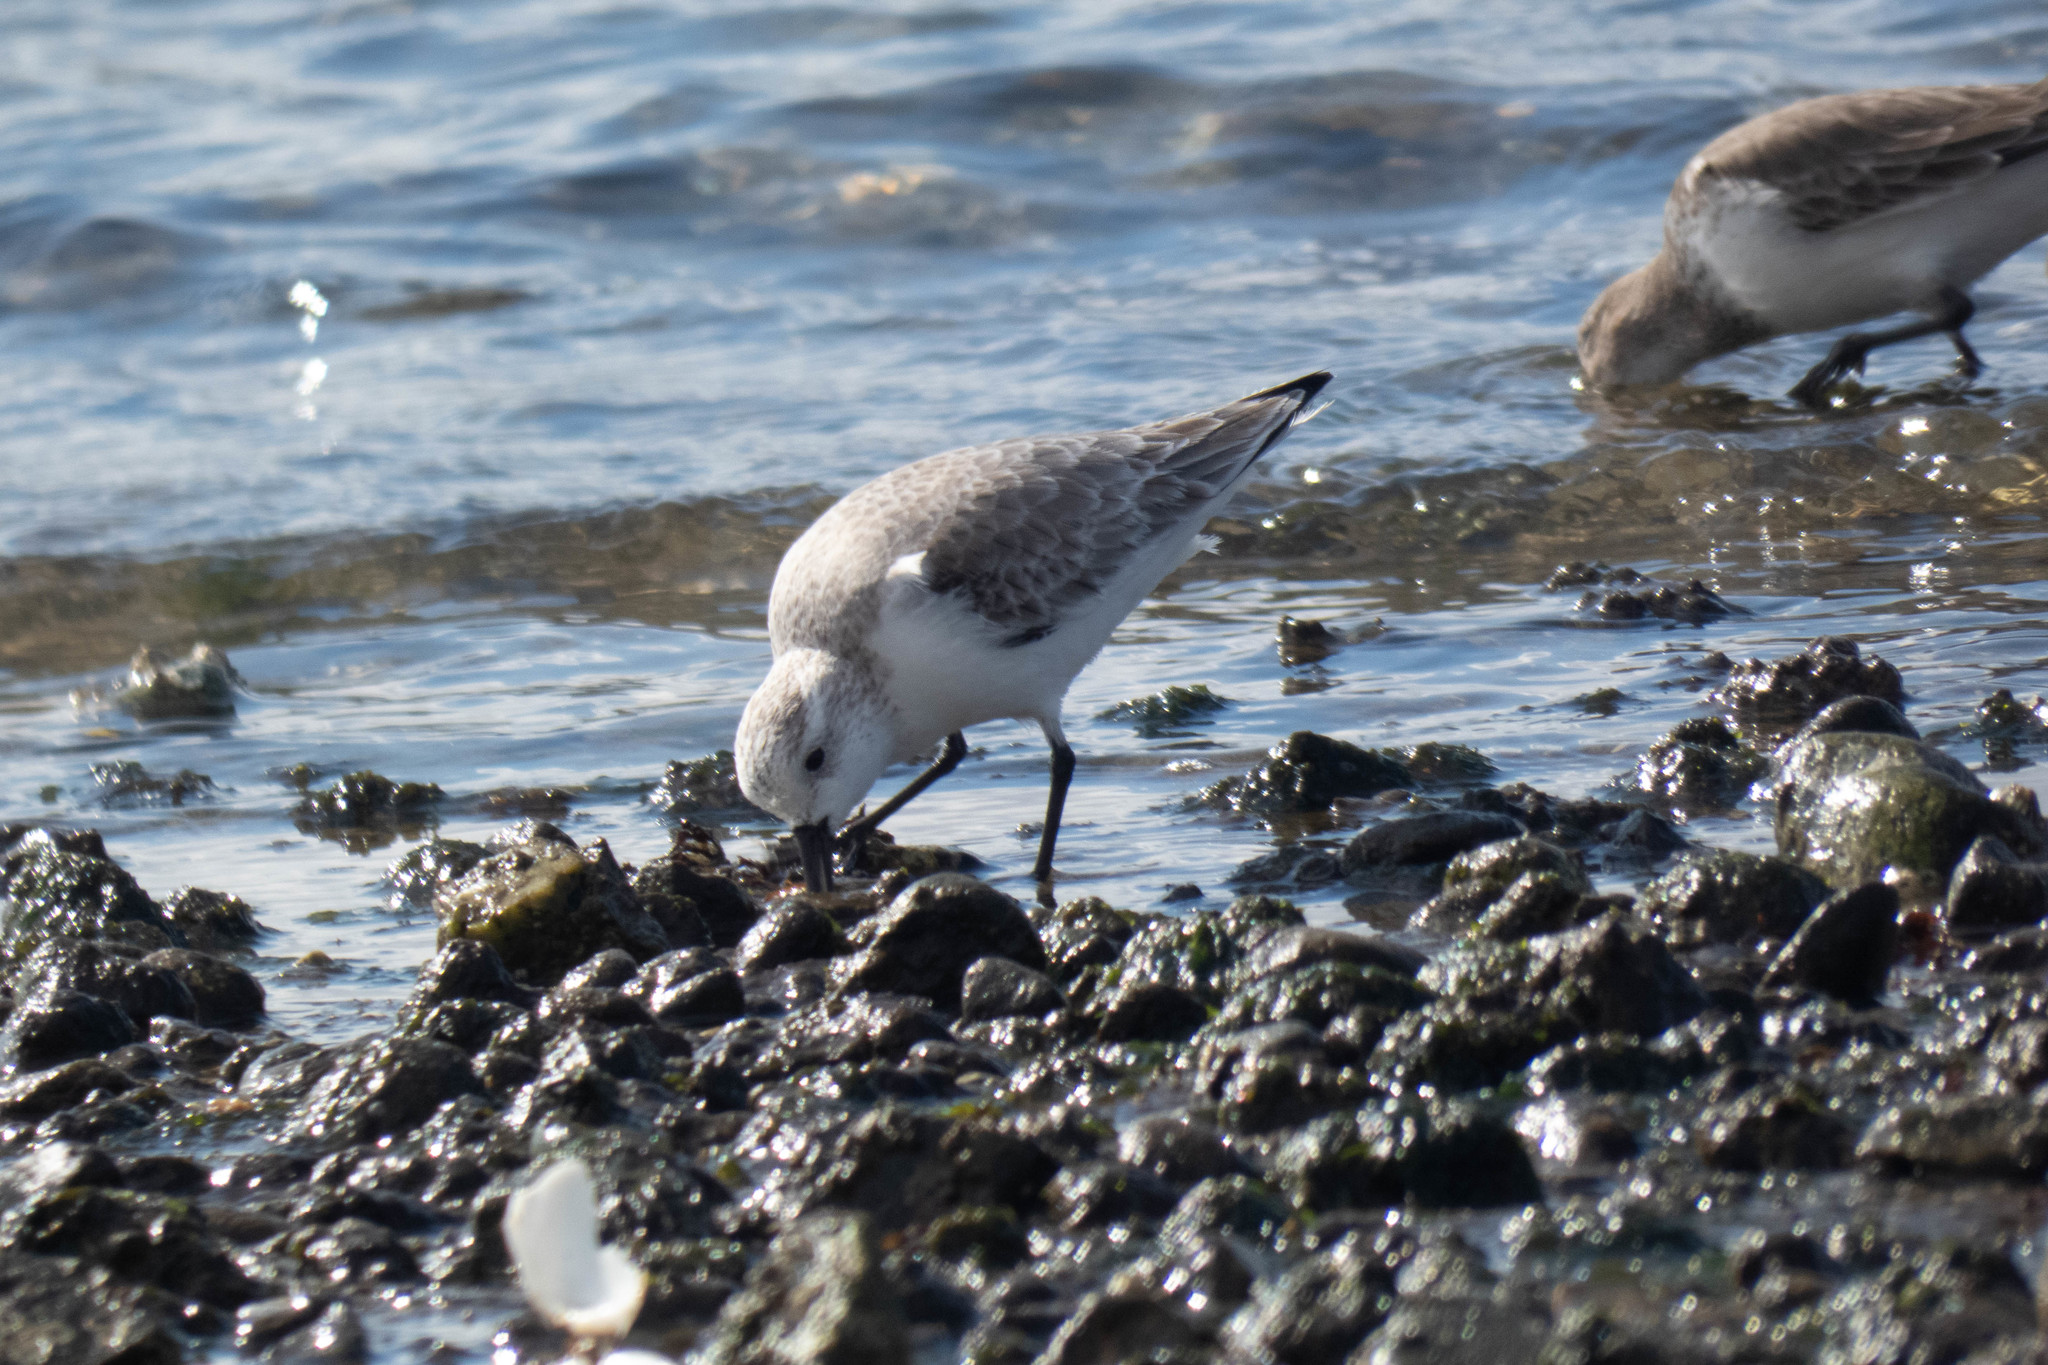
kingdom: Animalia
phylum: Chordata
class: Aves
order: Charadriiformes
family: Scolopacidae
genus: Calidris
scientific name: Calidris alba
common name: Sanderling
